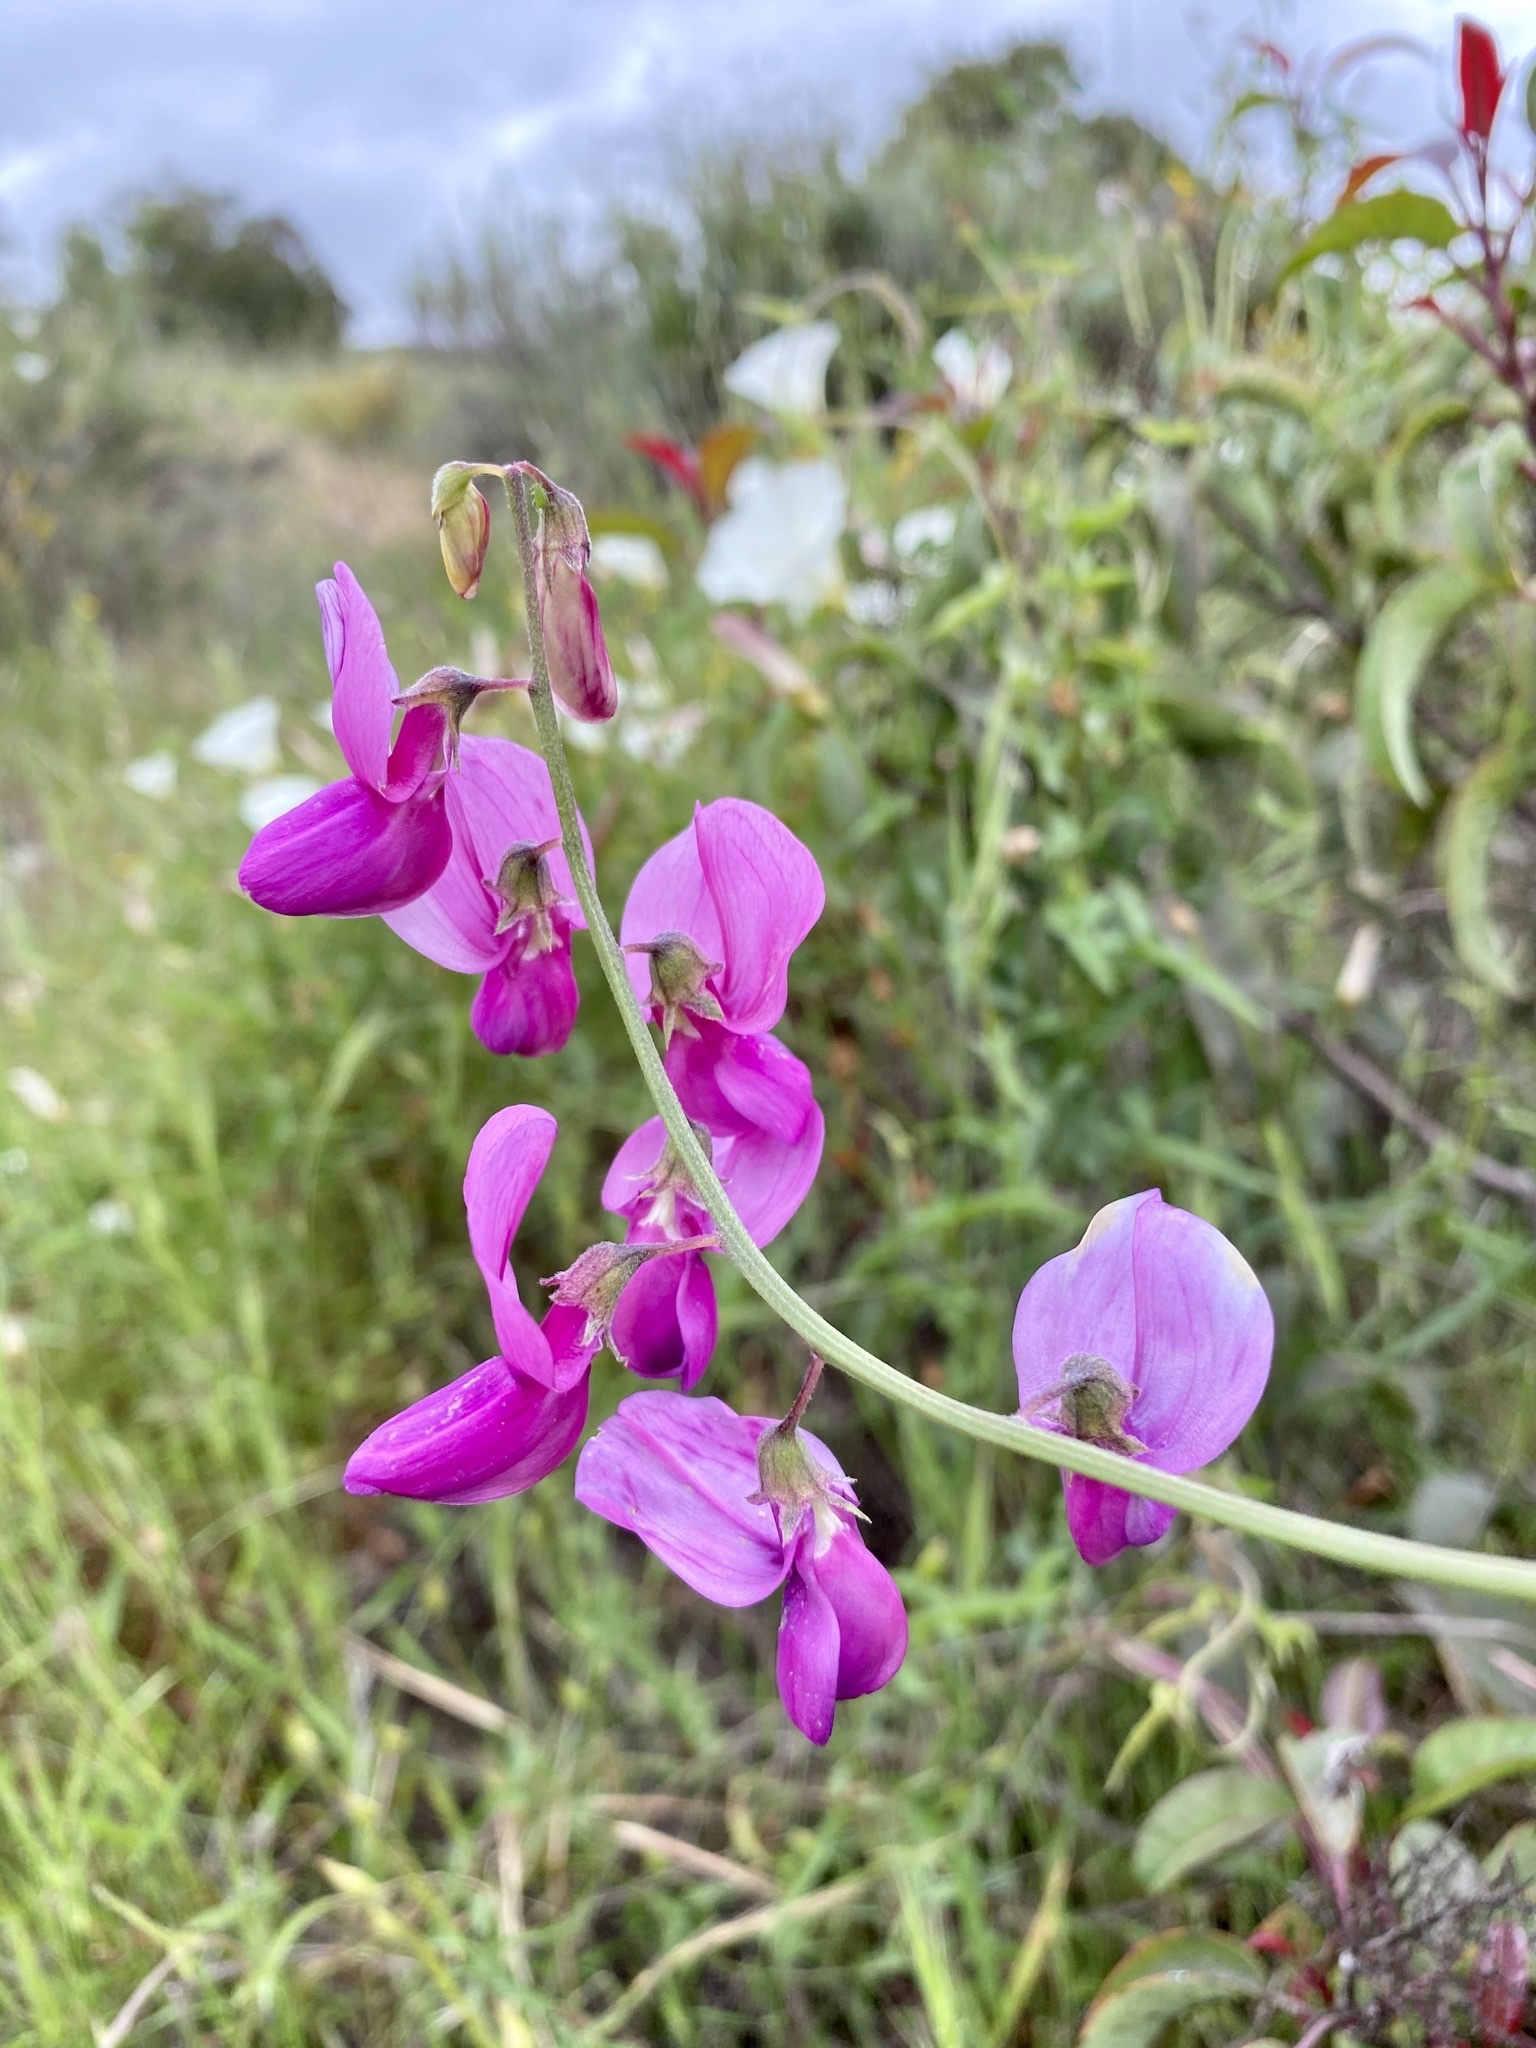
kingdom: Plantae
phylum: Tracheophyta
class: Magnoliopsida
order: Fabales
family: Fabaceae
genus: Lathyrus
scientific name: Lathyrus vestitus
